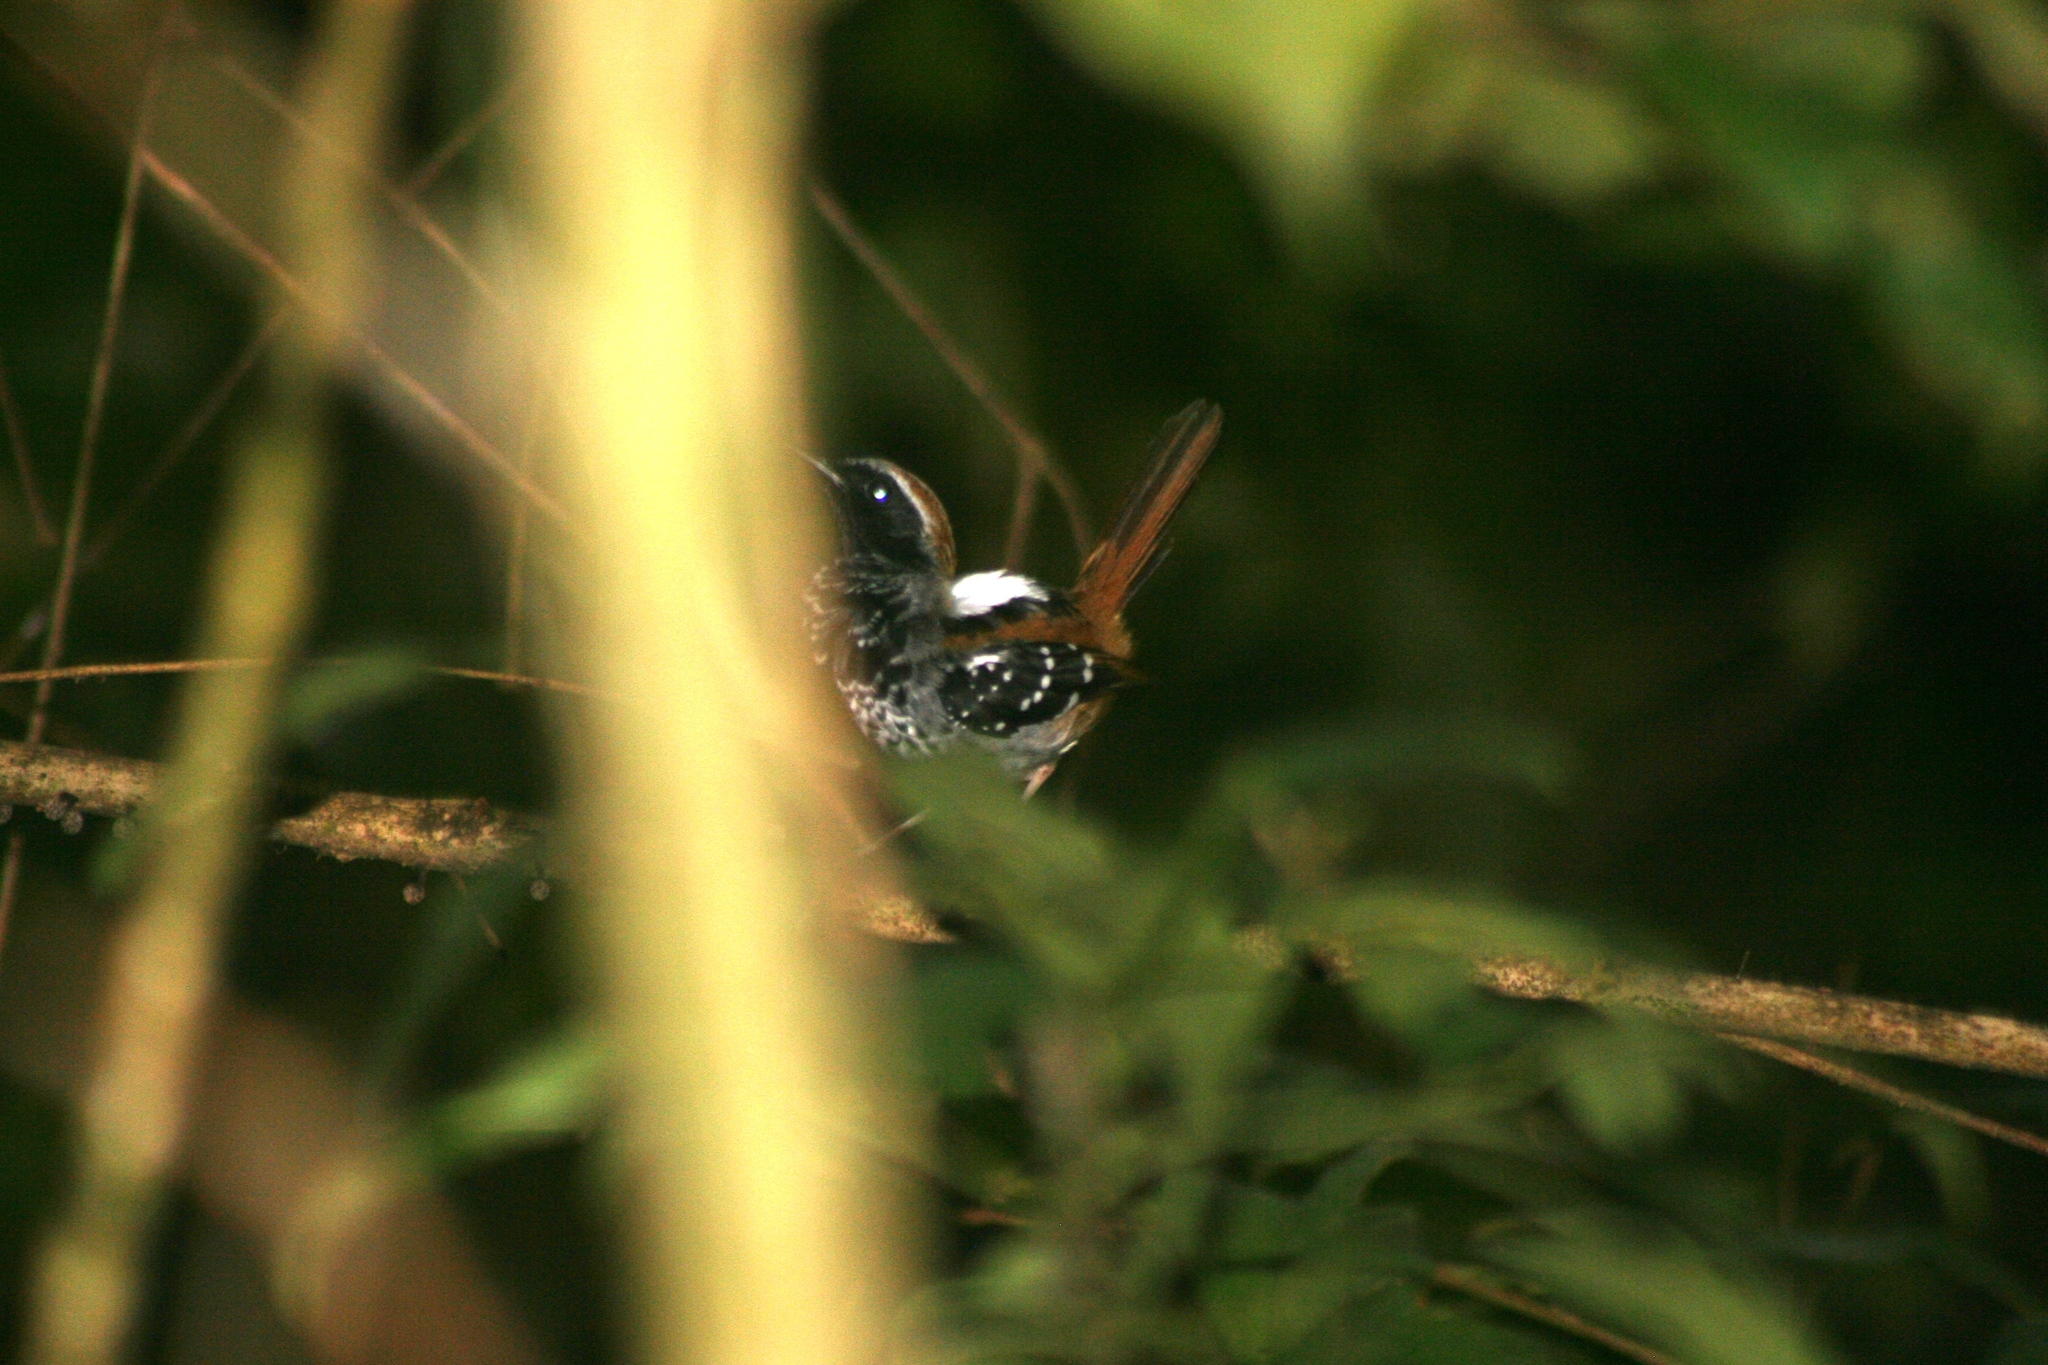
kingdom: Animalia
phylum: Chordata
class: Aves
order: Passeriformes
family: Thamnophilidae
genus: Myrmeciza
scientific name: Myrmeciza squamosa
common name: Squamate antbird
